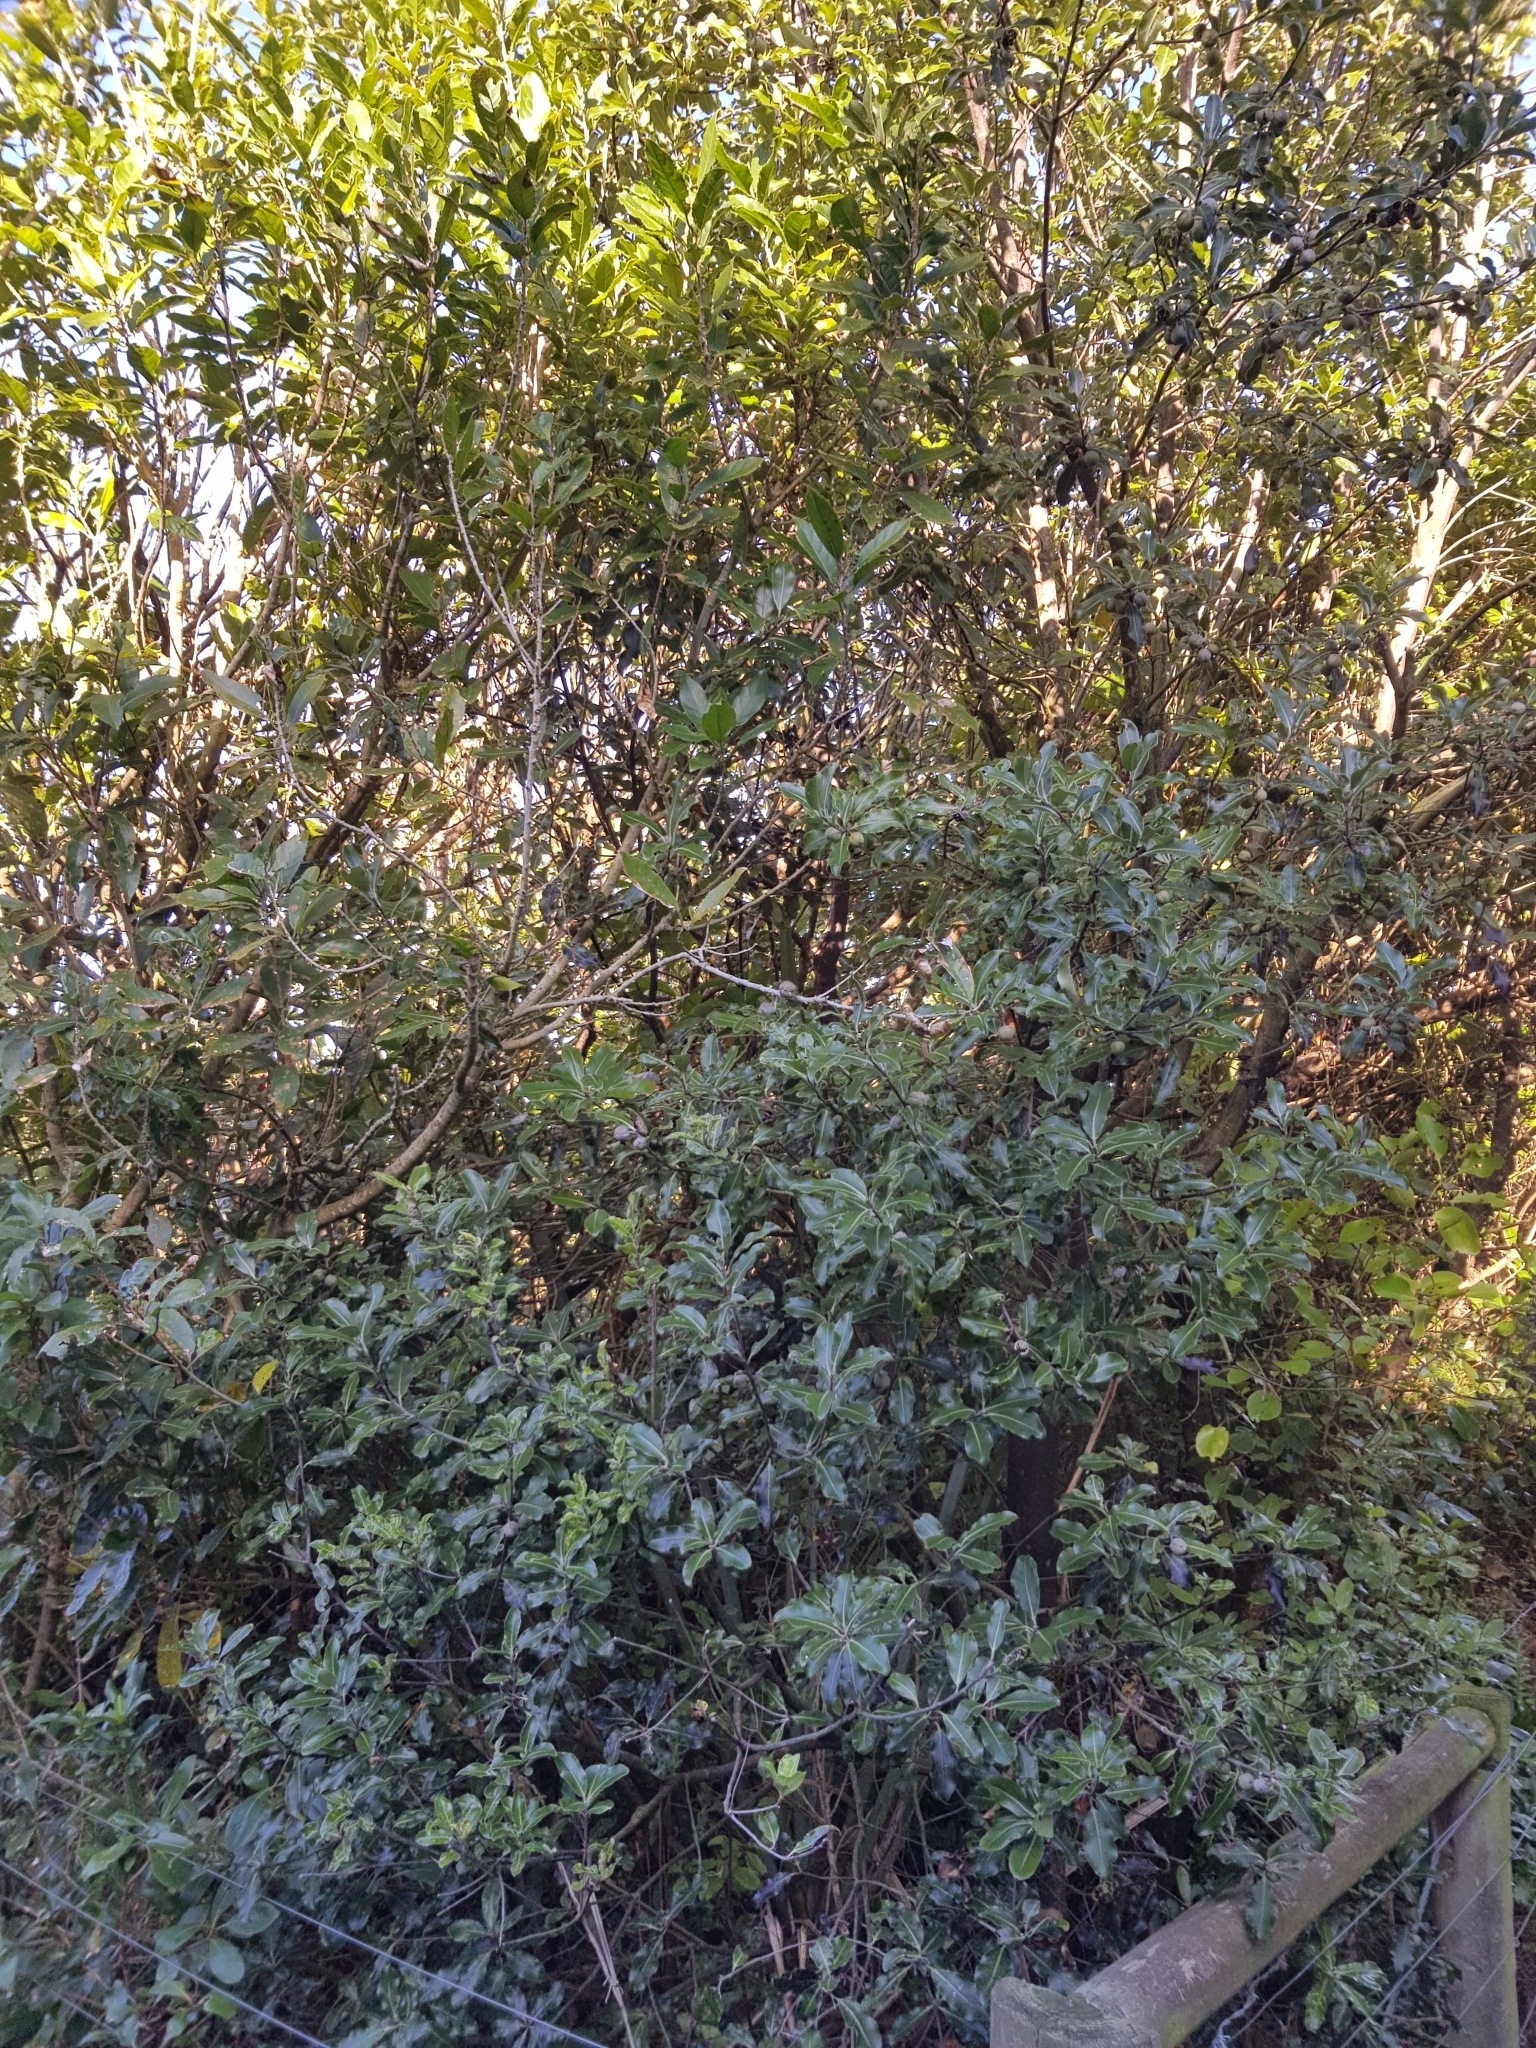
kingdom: Plantae
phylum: Tracheophyta
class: Magnoliopsida
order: Apiales
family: Pittosporaceae
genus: Pittosporum
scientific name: Pittosporum colensoi
